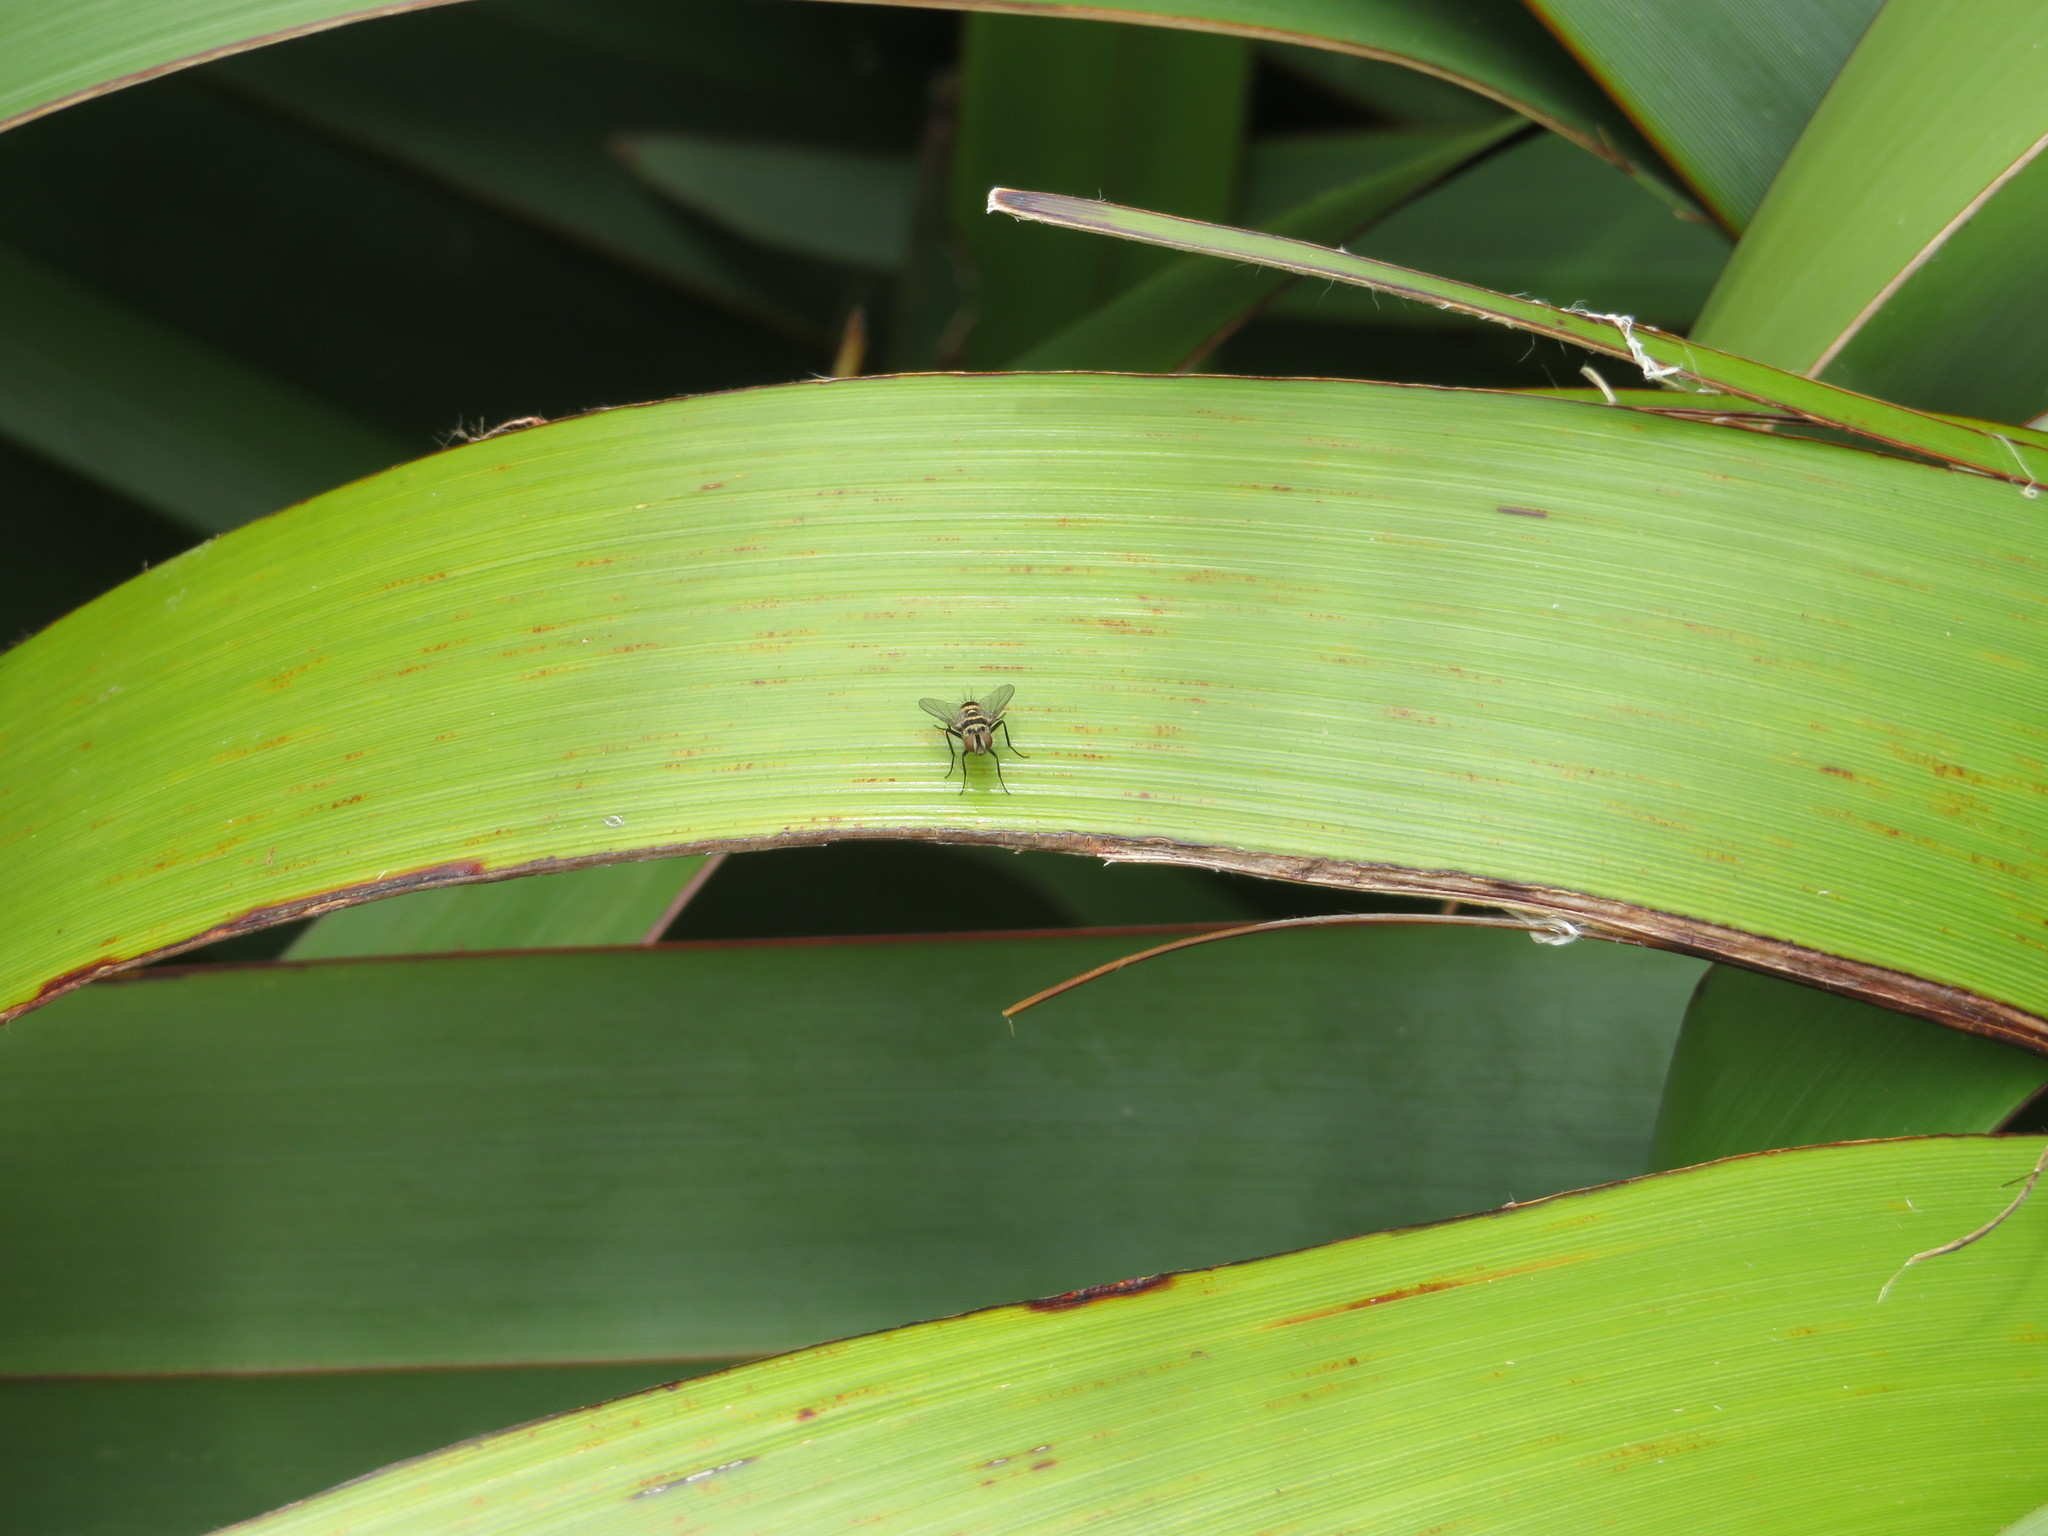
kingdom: Animalia
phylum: Arthropoda
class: Insecta
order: Diptera
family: Tachinidae
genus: Trigonospila
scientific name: Trigonospila brevifacies
